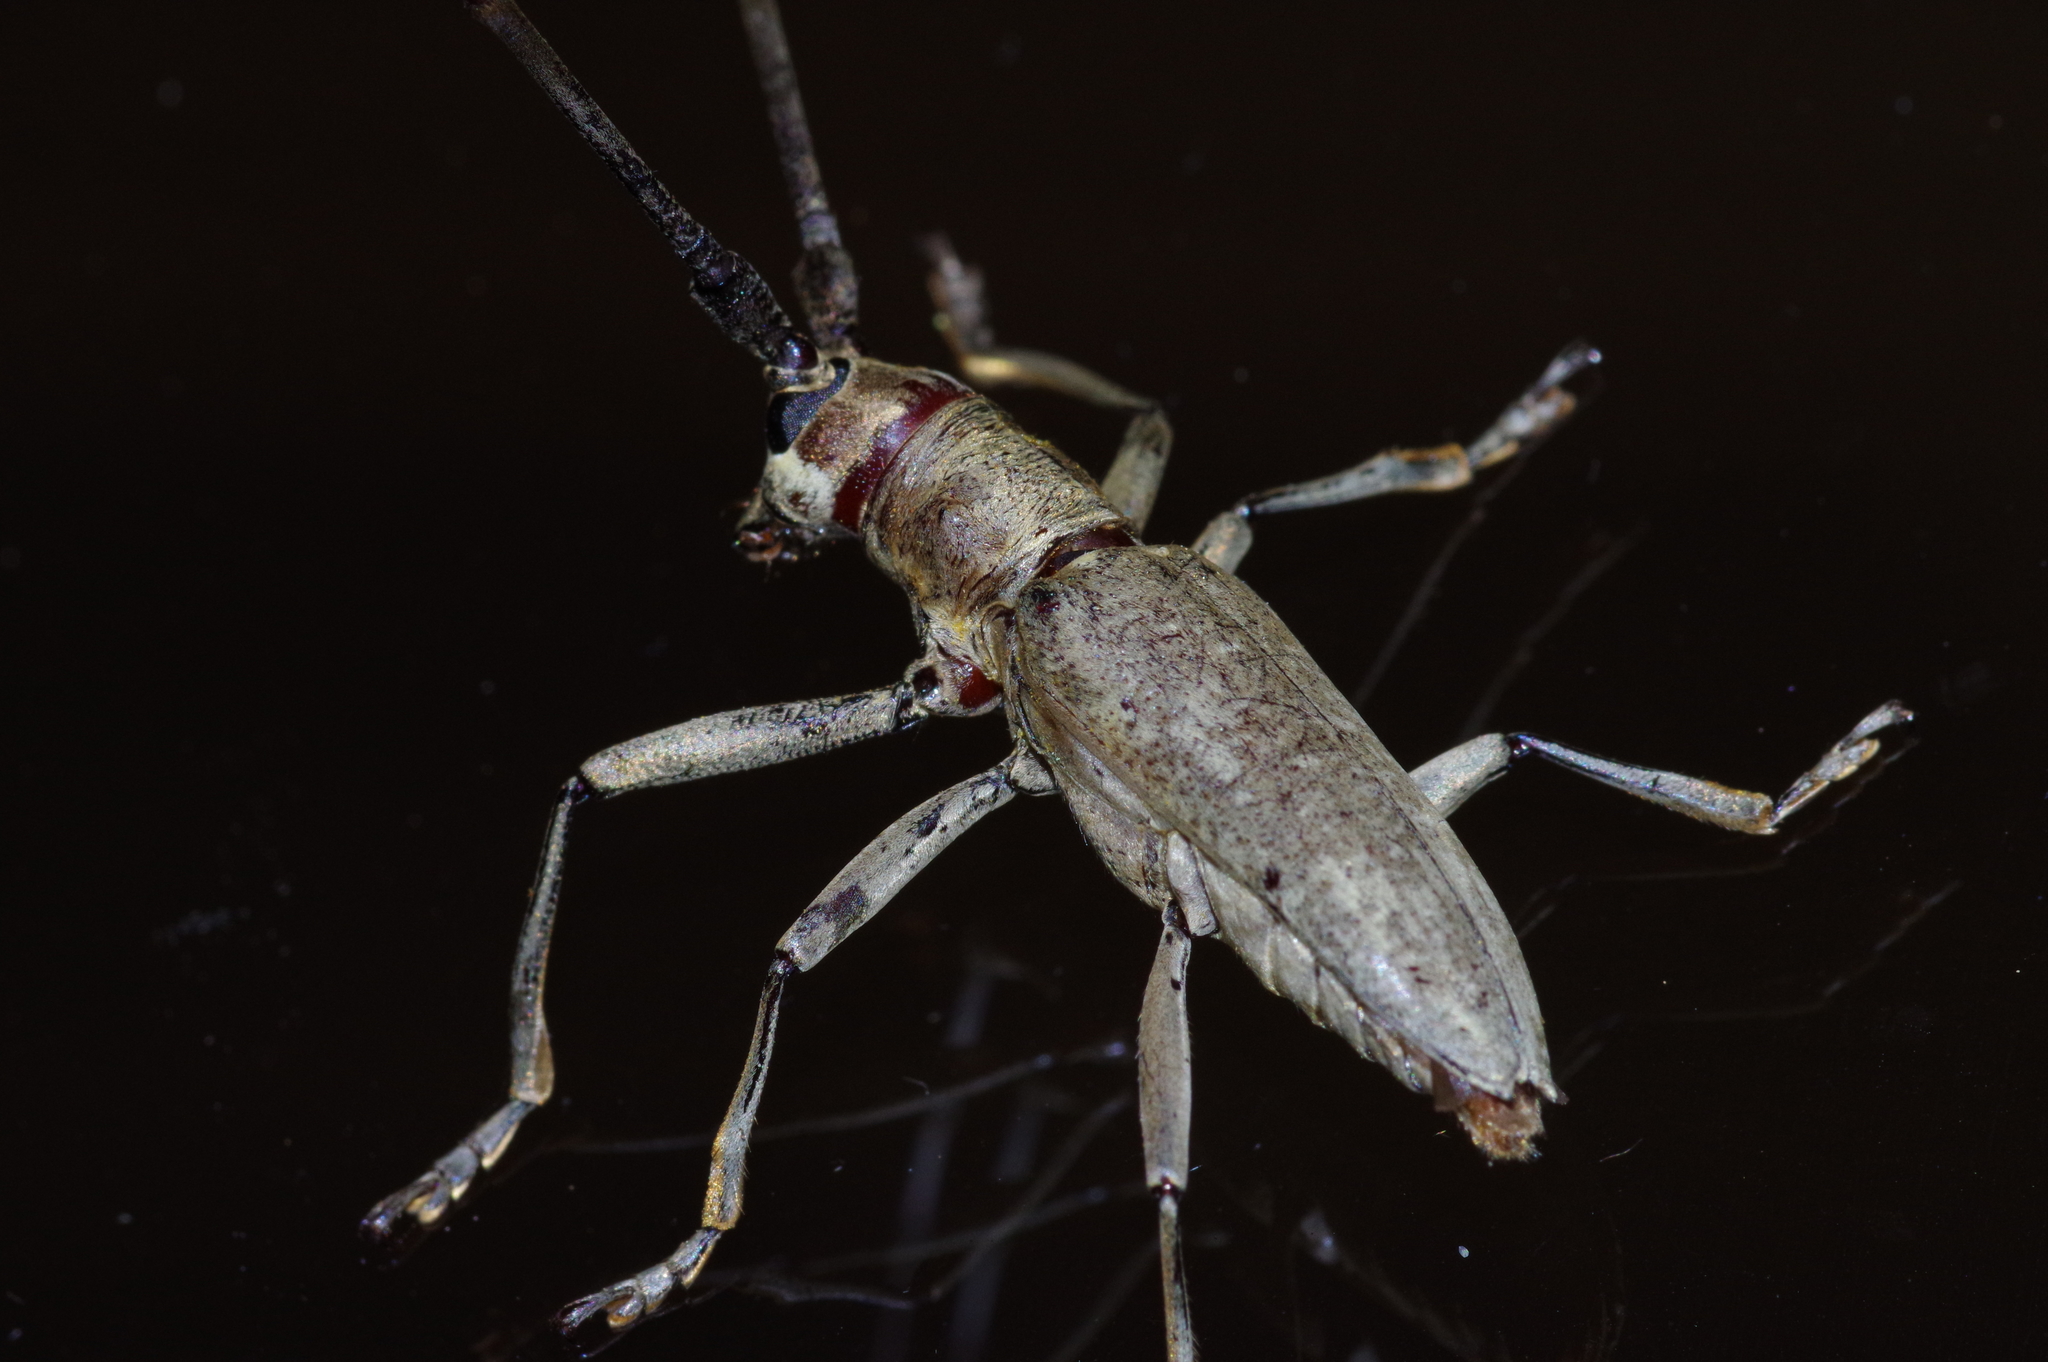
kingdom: Animalia
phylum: Arthropoda
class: Insecta
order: Coleoptera
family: Cerambycidae
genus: Psacothea
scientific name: Psacothea hilaris
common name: Yellow-spotted longicorn beetle
